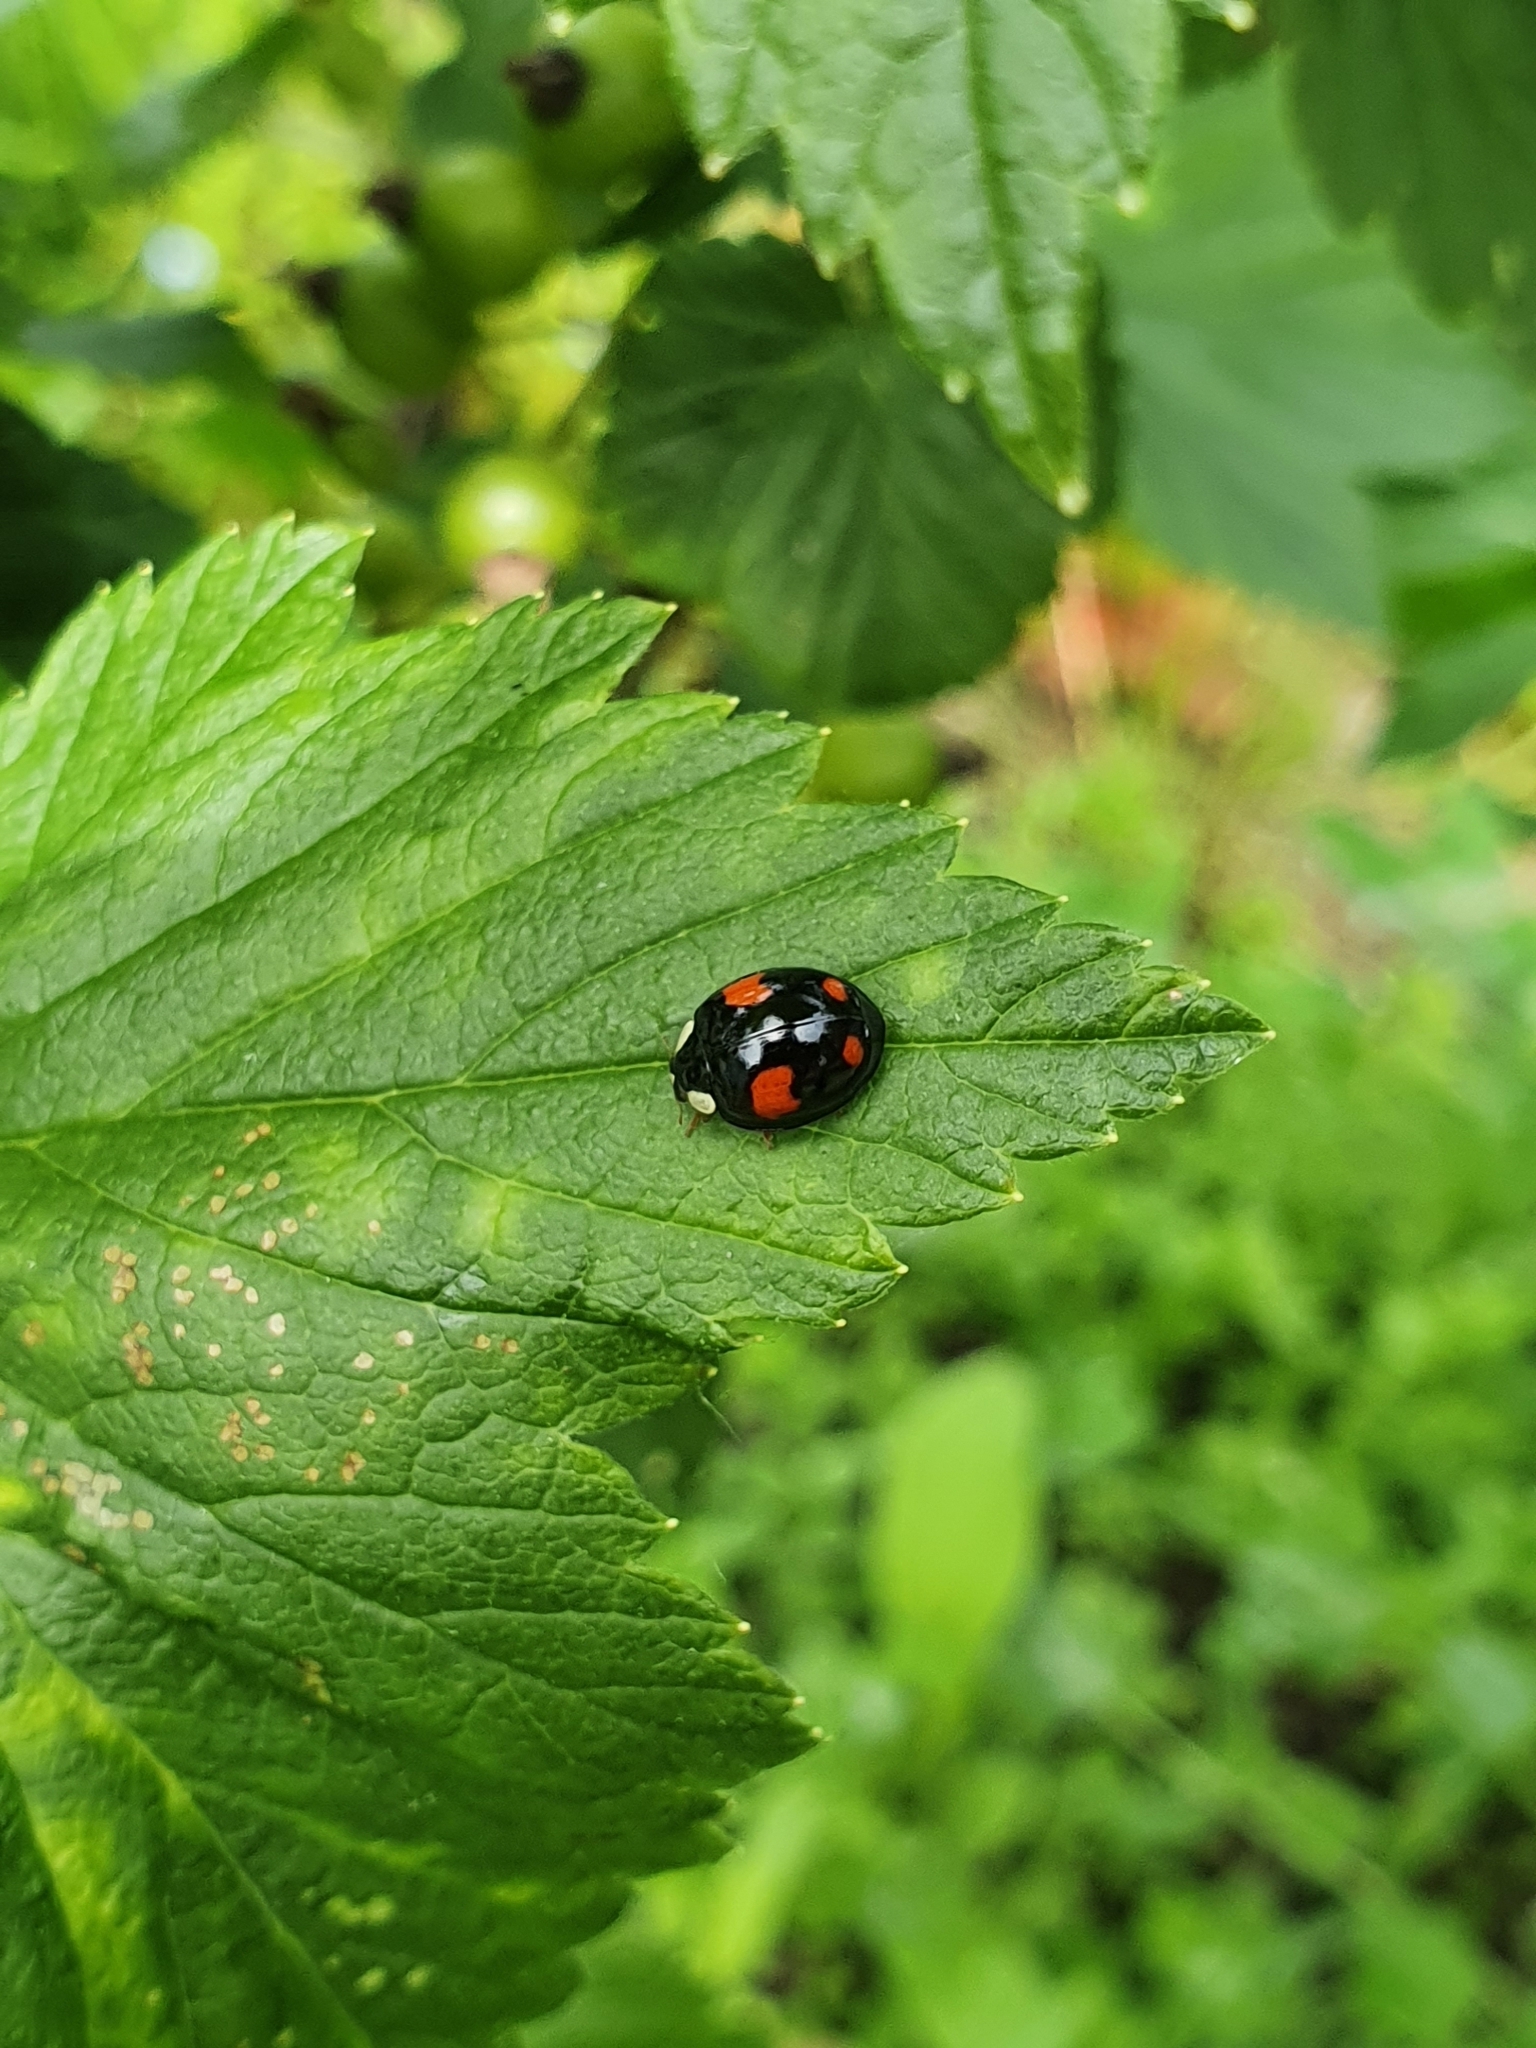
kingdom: Animalia
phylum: Arthropoda
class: Insecta
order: Coleoptera
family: Coccinellidae
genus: Harmonia
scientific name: Harmonia axyridis
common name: Harlequin ladybird
